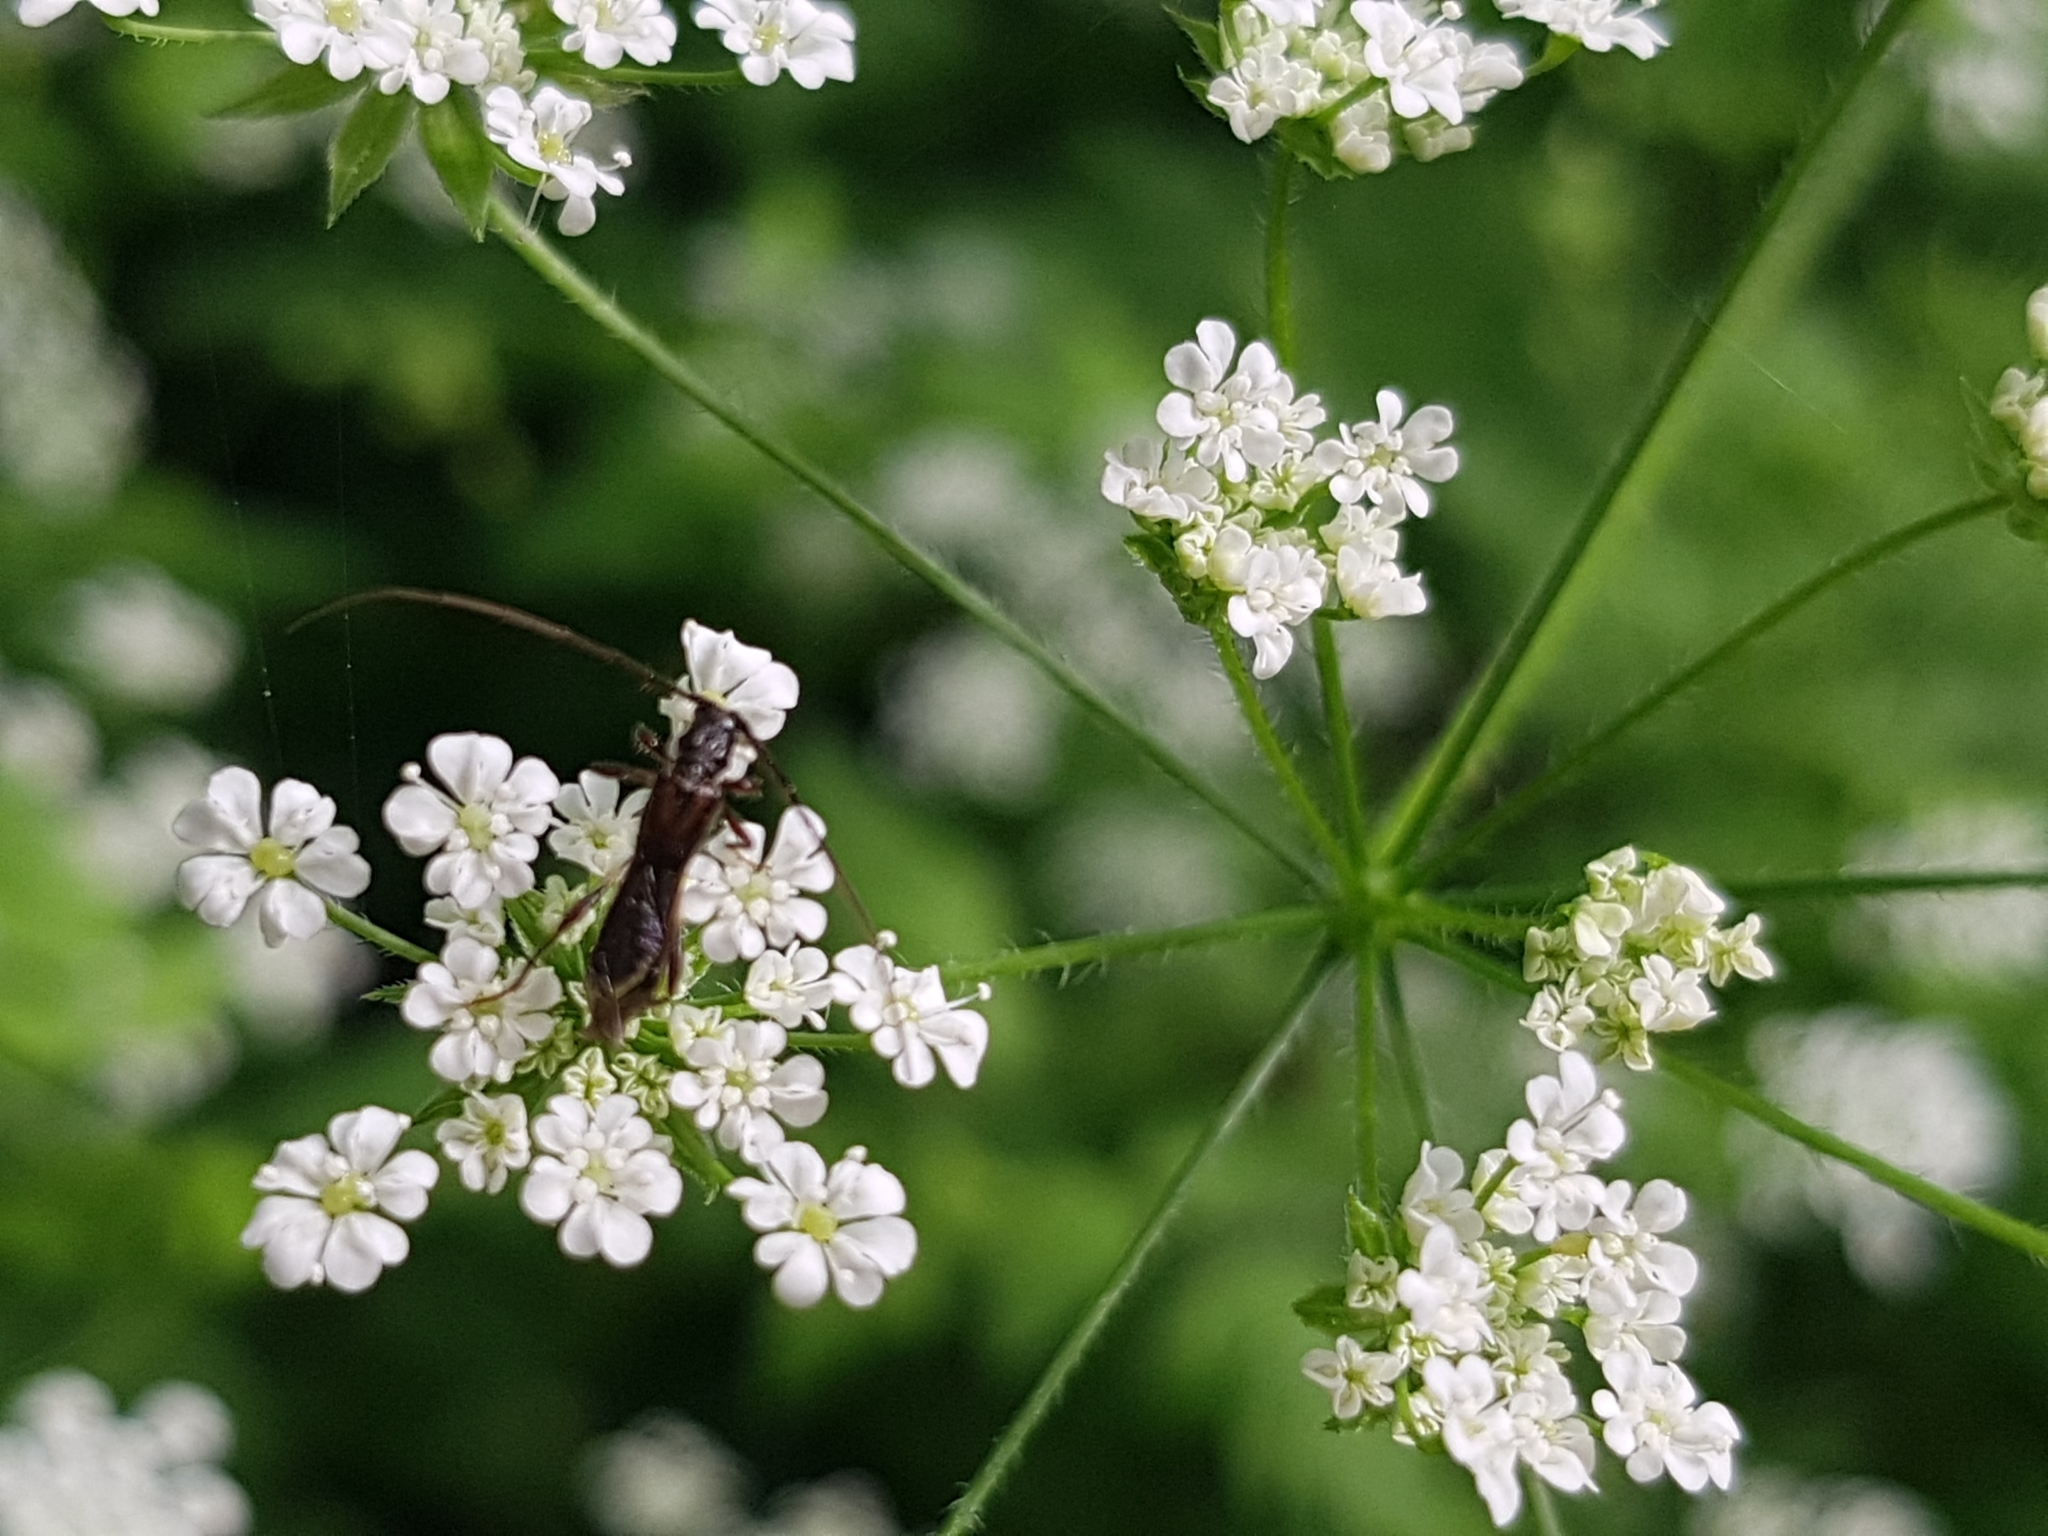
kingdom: Animalia
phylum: Arthropoda
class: Insecta
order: Coleoptera
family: Cerambycidae
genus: Molorchus
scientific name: Molorchus umbellatarum
